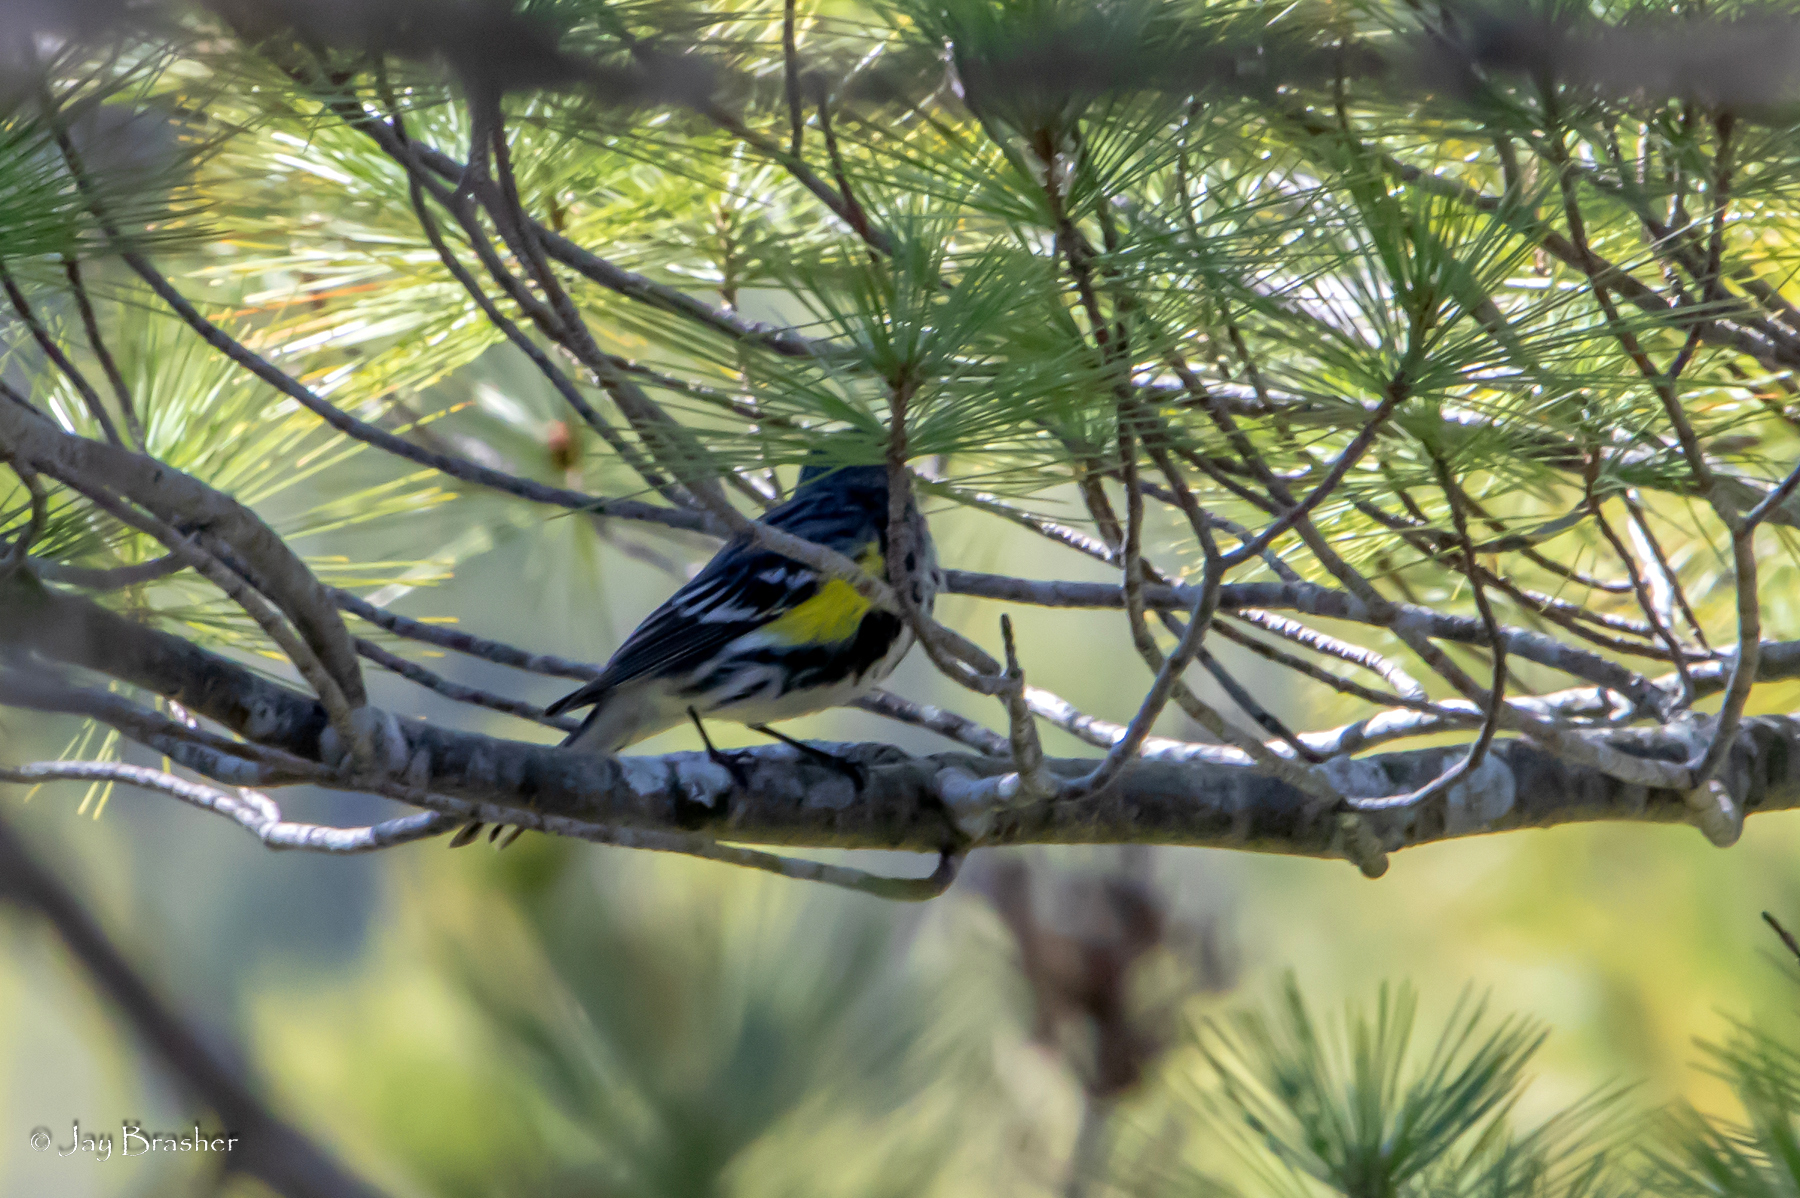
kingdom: Animalia
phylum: Chordata
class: Aves
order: Passeriformes
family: Parulidae
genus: Setophaga
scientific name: Setophaga coronata
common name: Myrtle warbler
